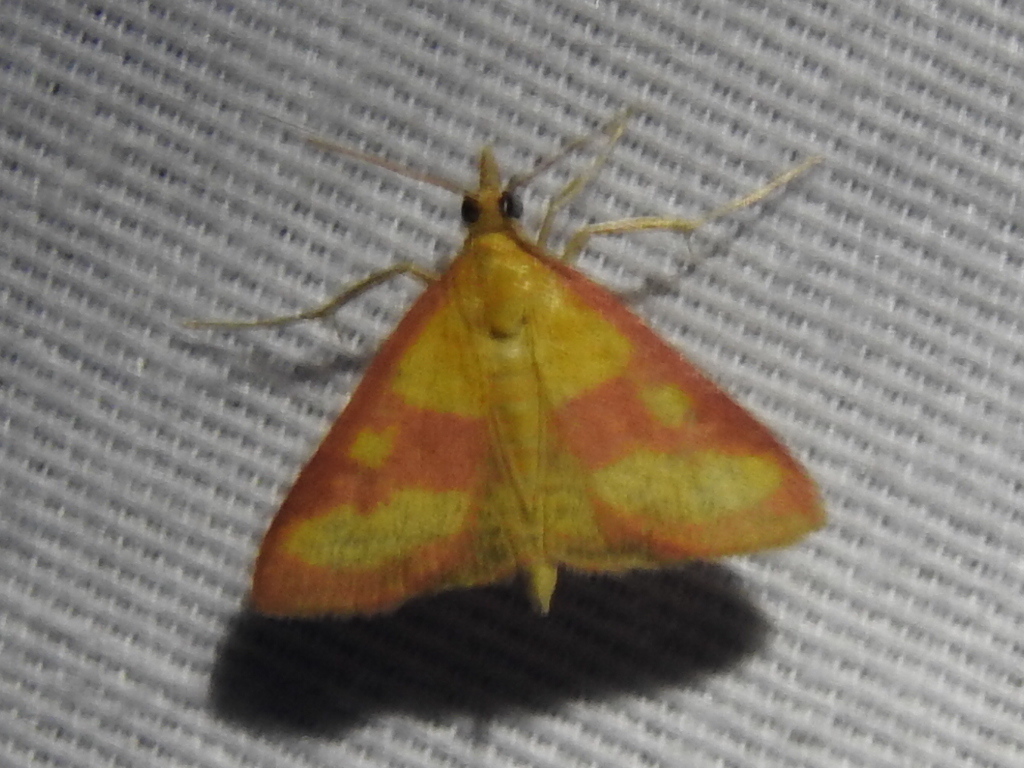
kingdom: Animalia
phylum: Arthropoda
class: Insecta
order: Lepidoptera
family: Crambidae
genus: Pyrausta
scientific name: Pyrausta laticlavia
